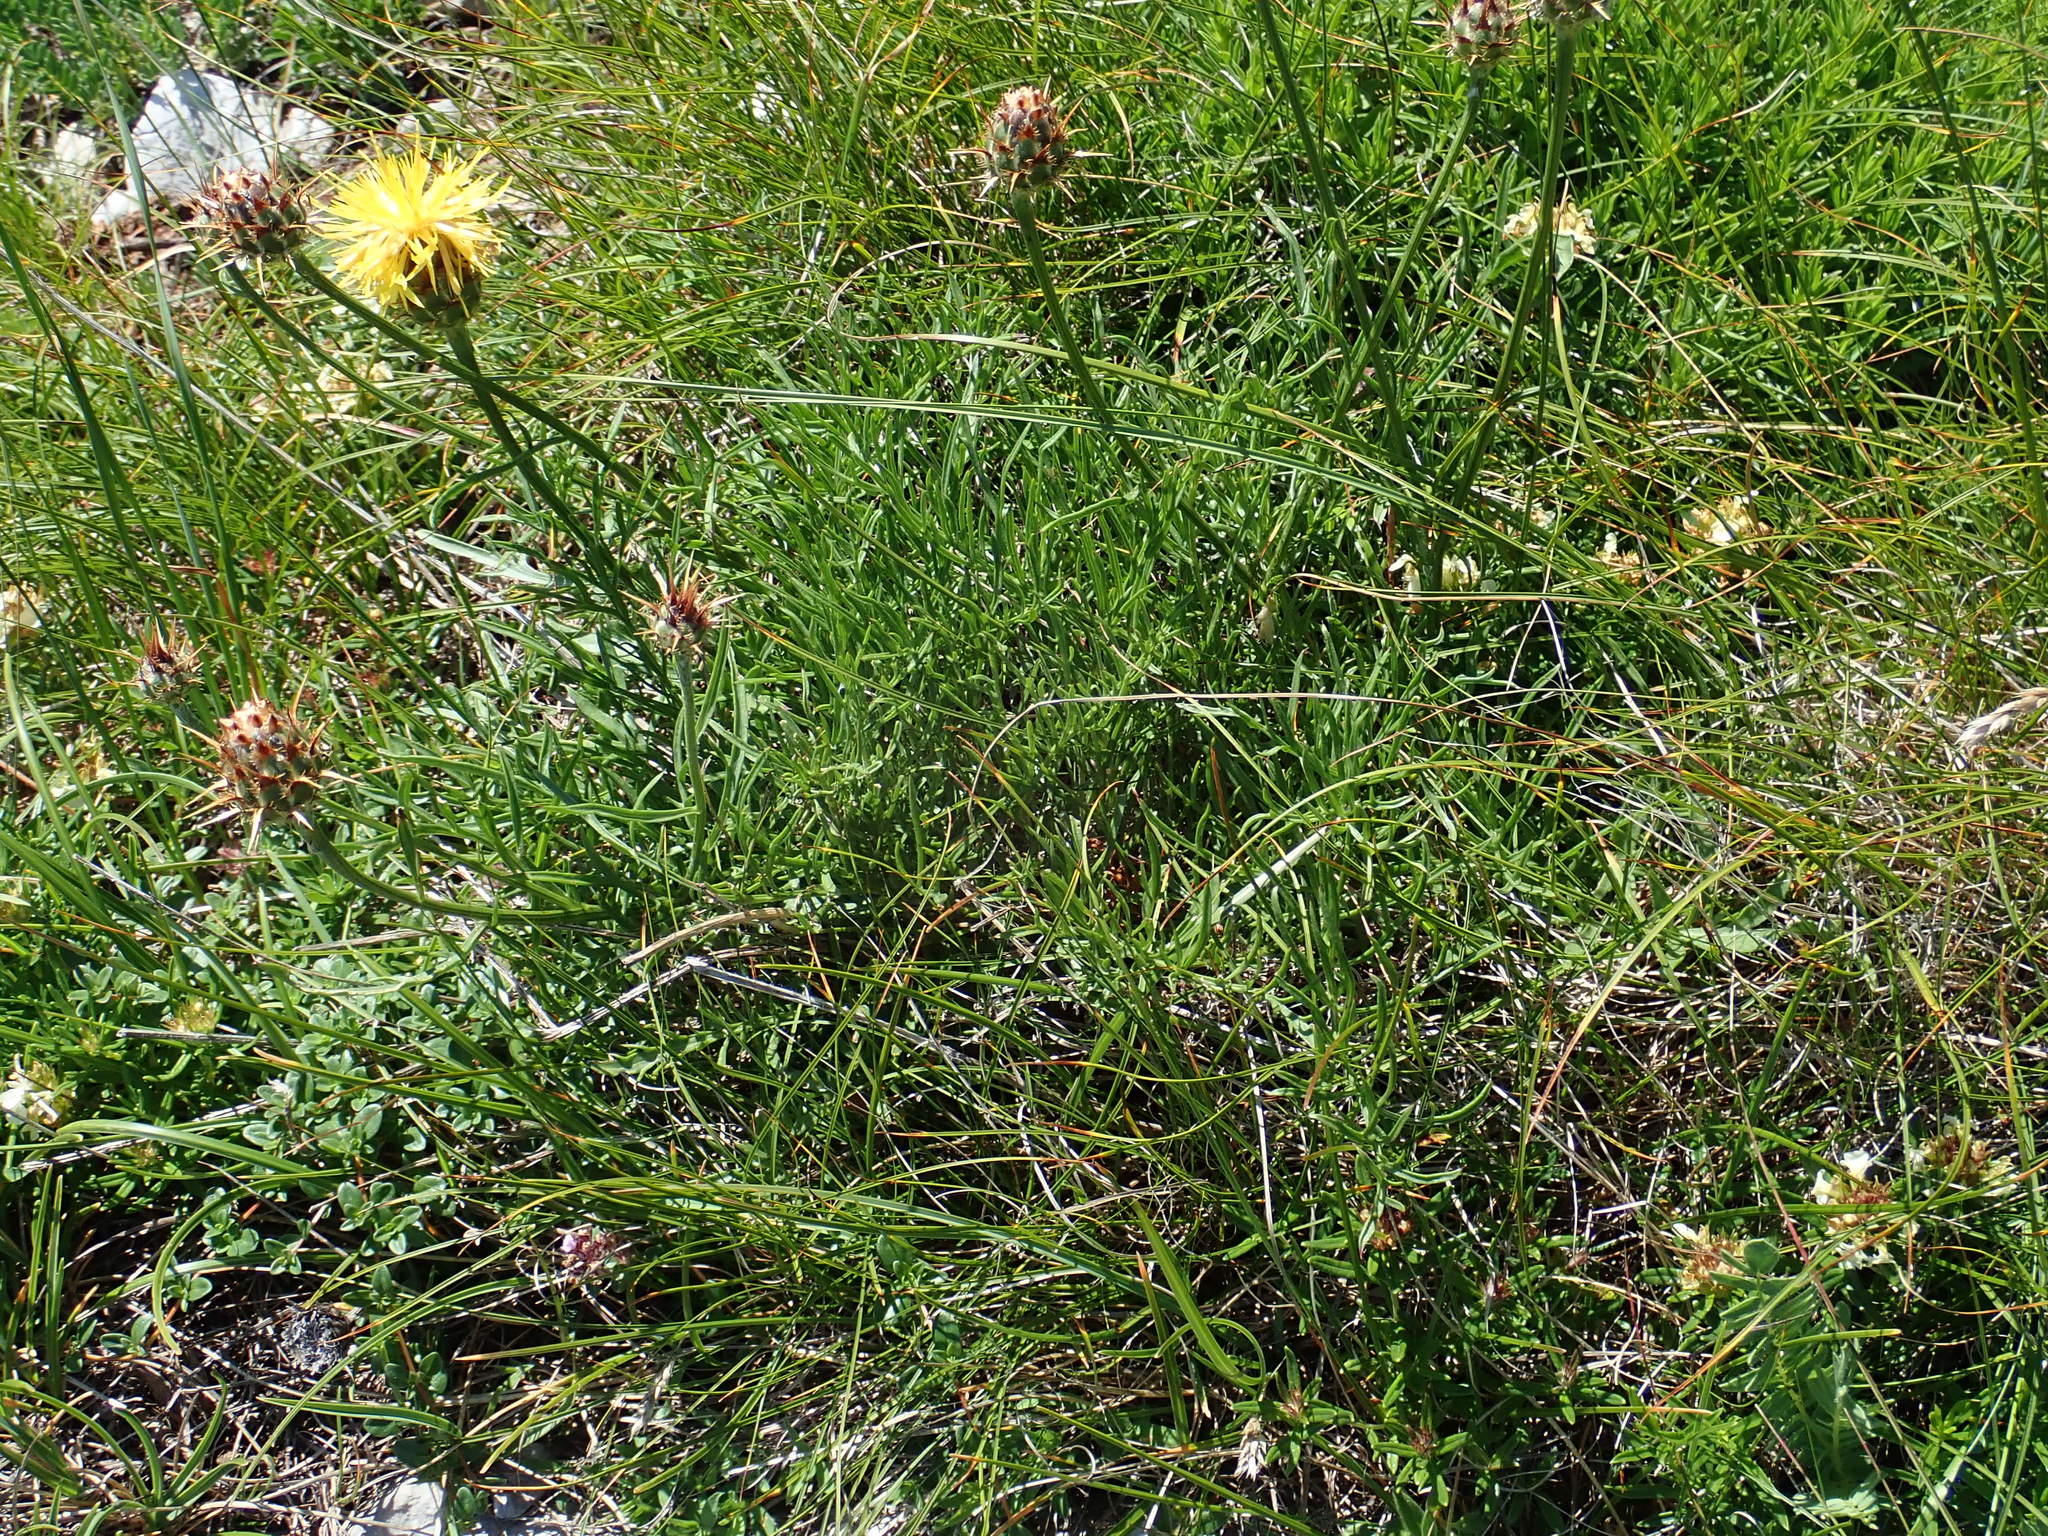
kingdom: Plantae
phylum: Tracheophyta
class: Magnoliopsida
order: Asterales
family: Asteraceae
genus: Centaurea
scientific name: Centaurea rupestris
